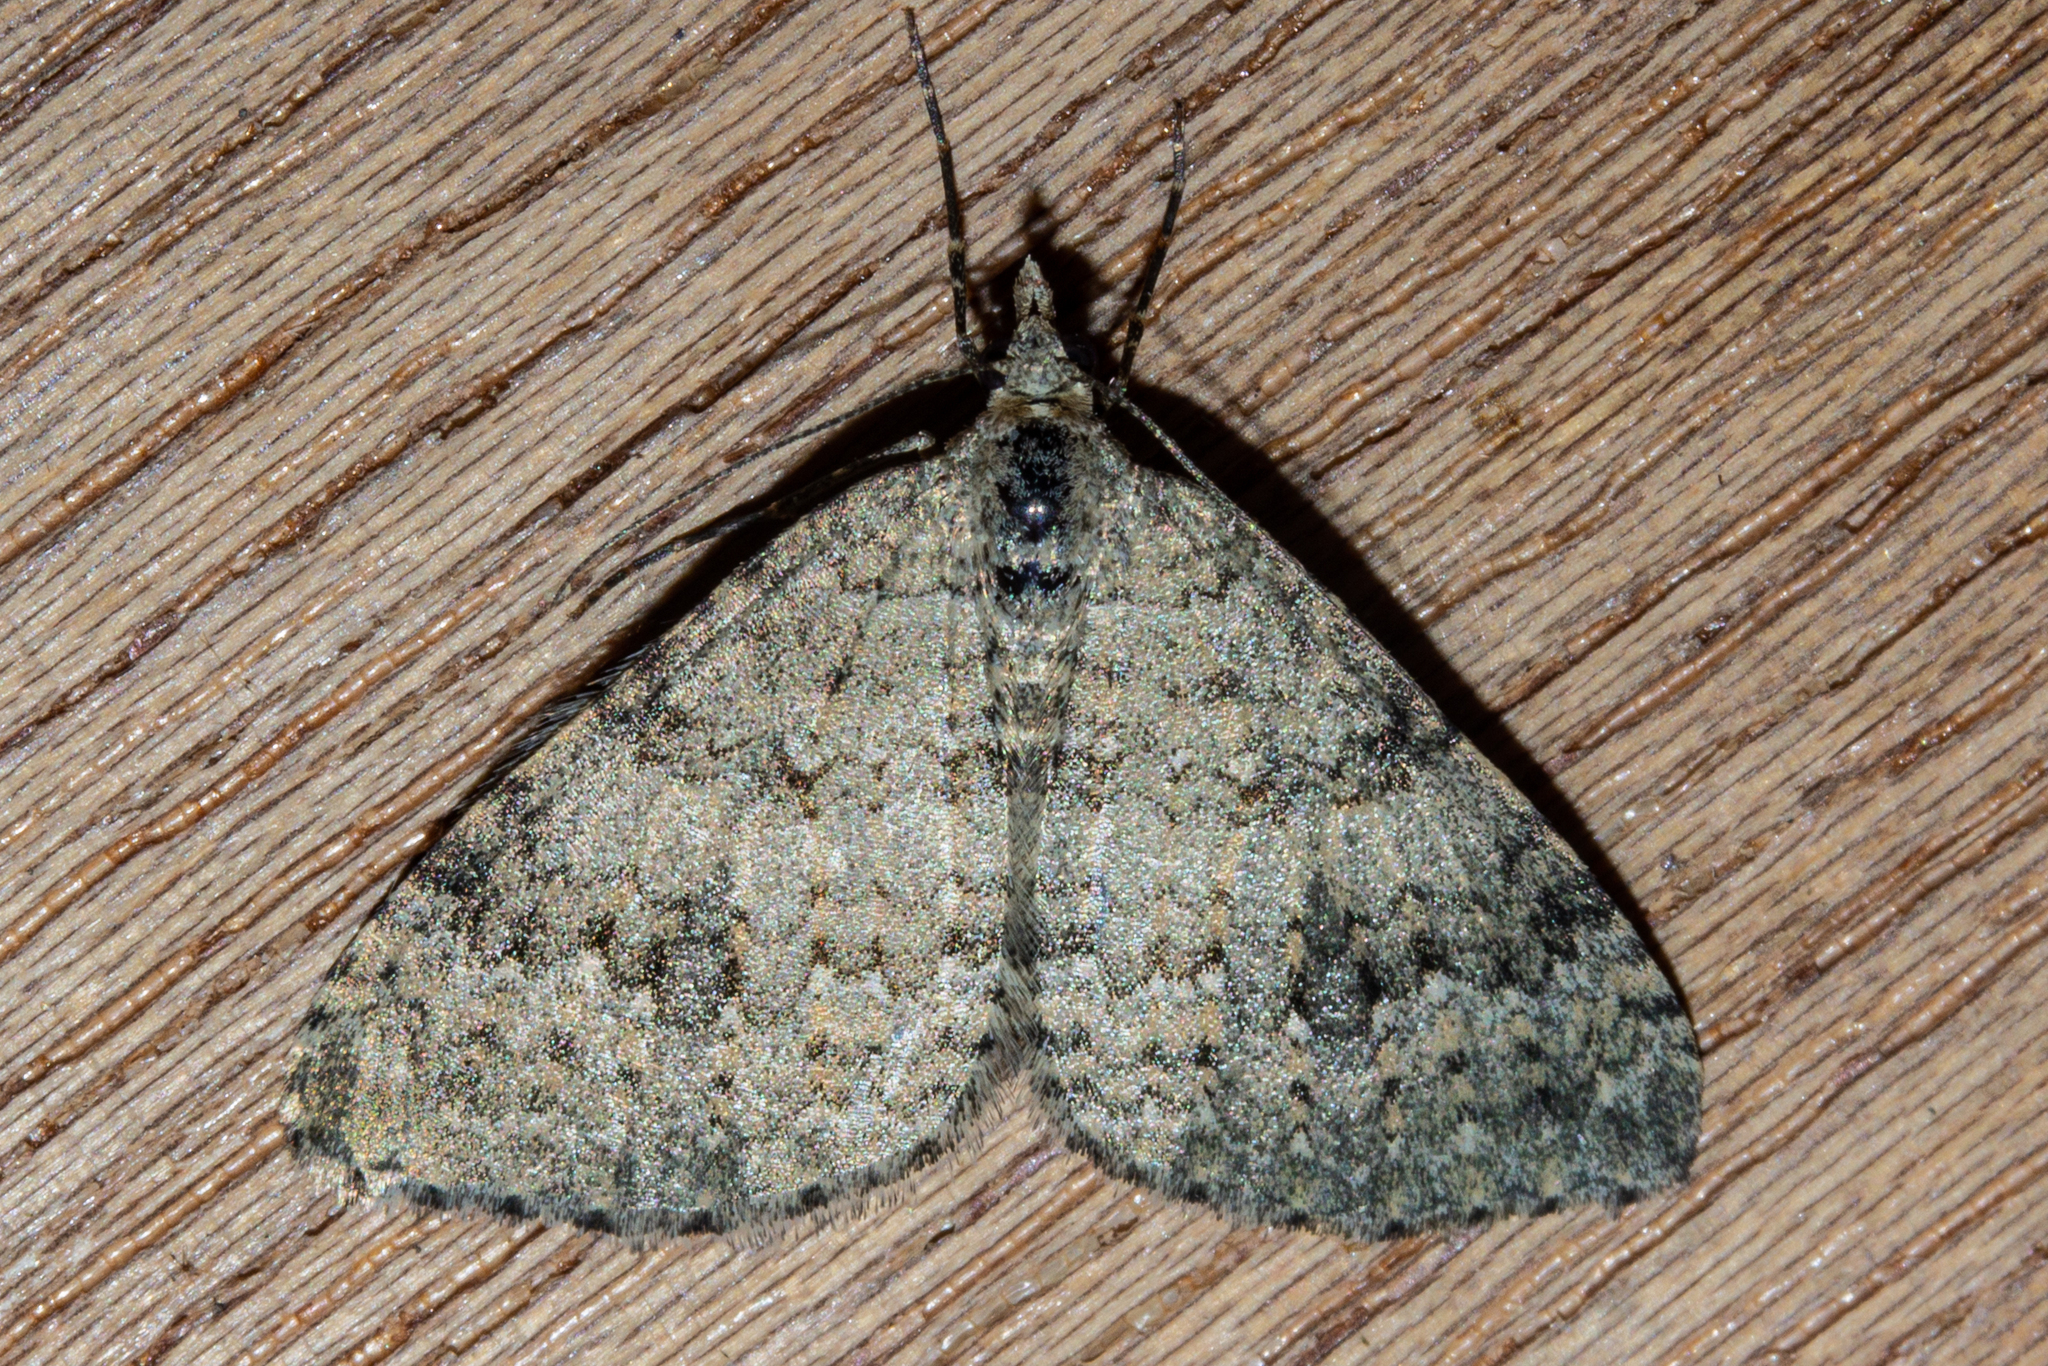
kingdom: Animalia
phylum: Arthropoda
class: Insecta
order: Lepidoptera
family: Geometridae
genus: Helastia
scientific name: Helastia corcularia
